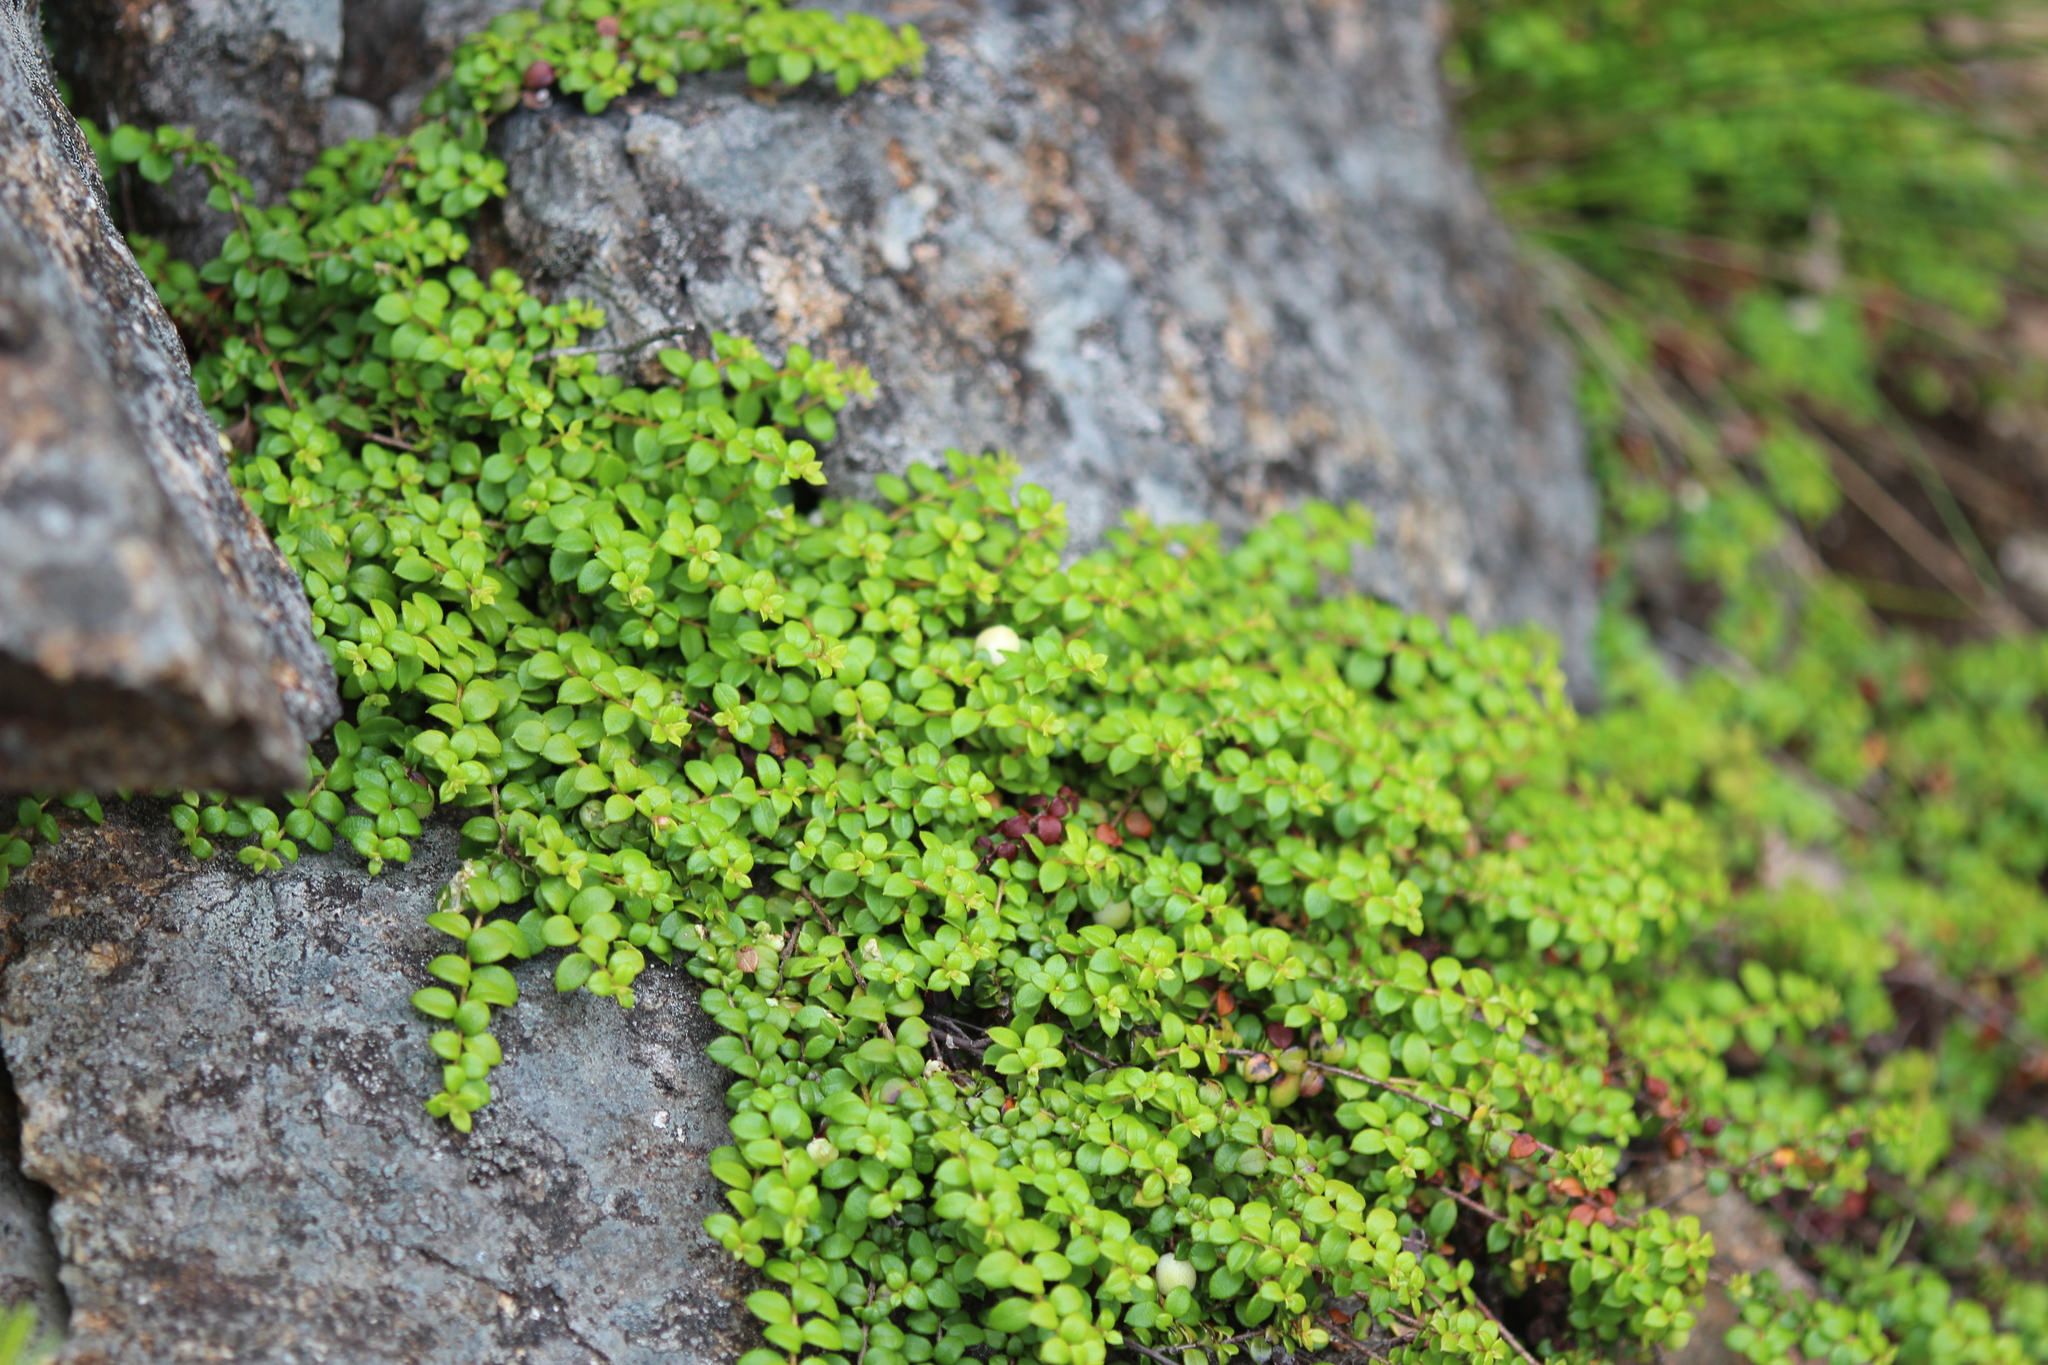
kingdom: Plantae
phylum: Tracheophyta
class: Magnoliopsida
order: Ericales
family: Ericaceae
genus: Gaultheria
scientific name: Gaultheria hispidula
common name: Cancer wintergreen
